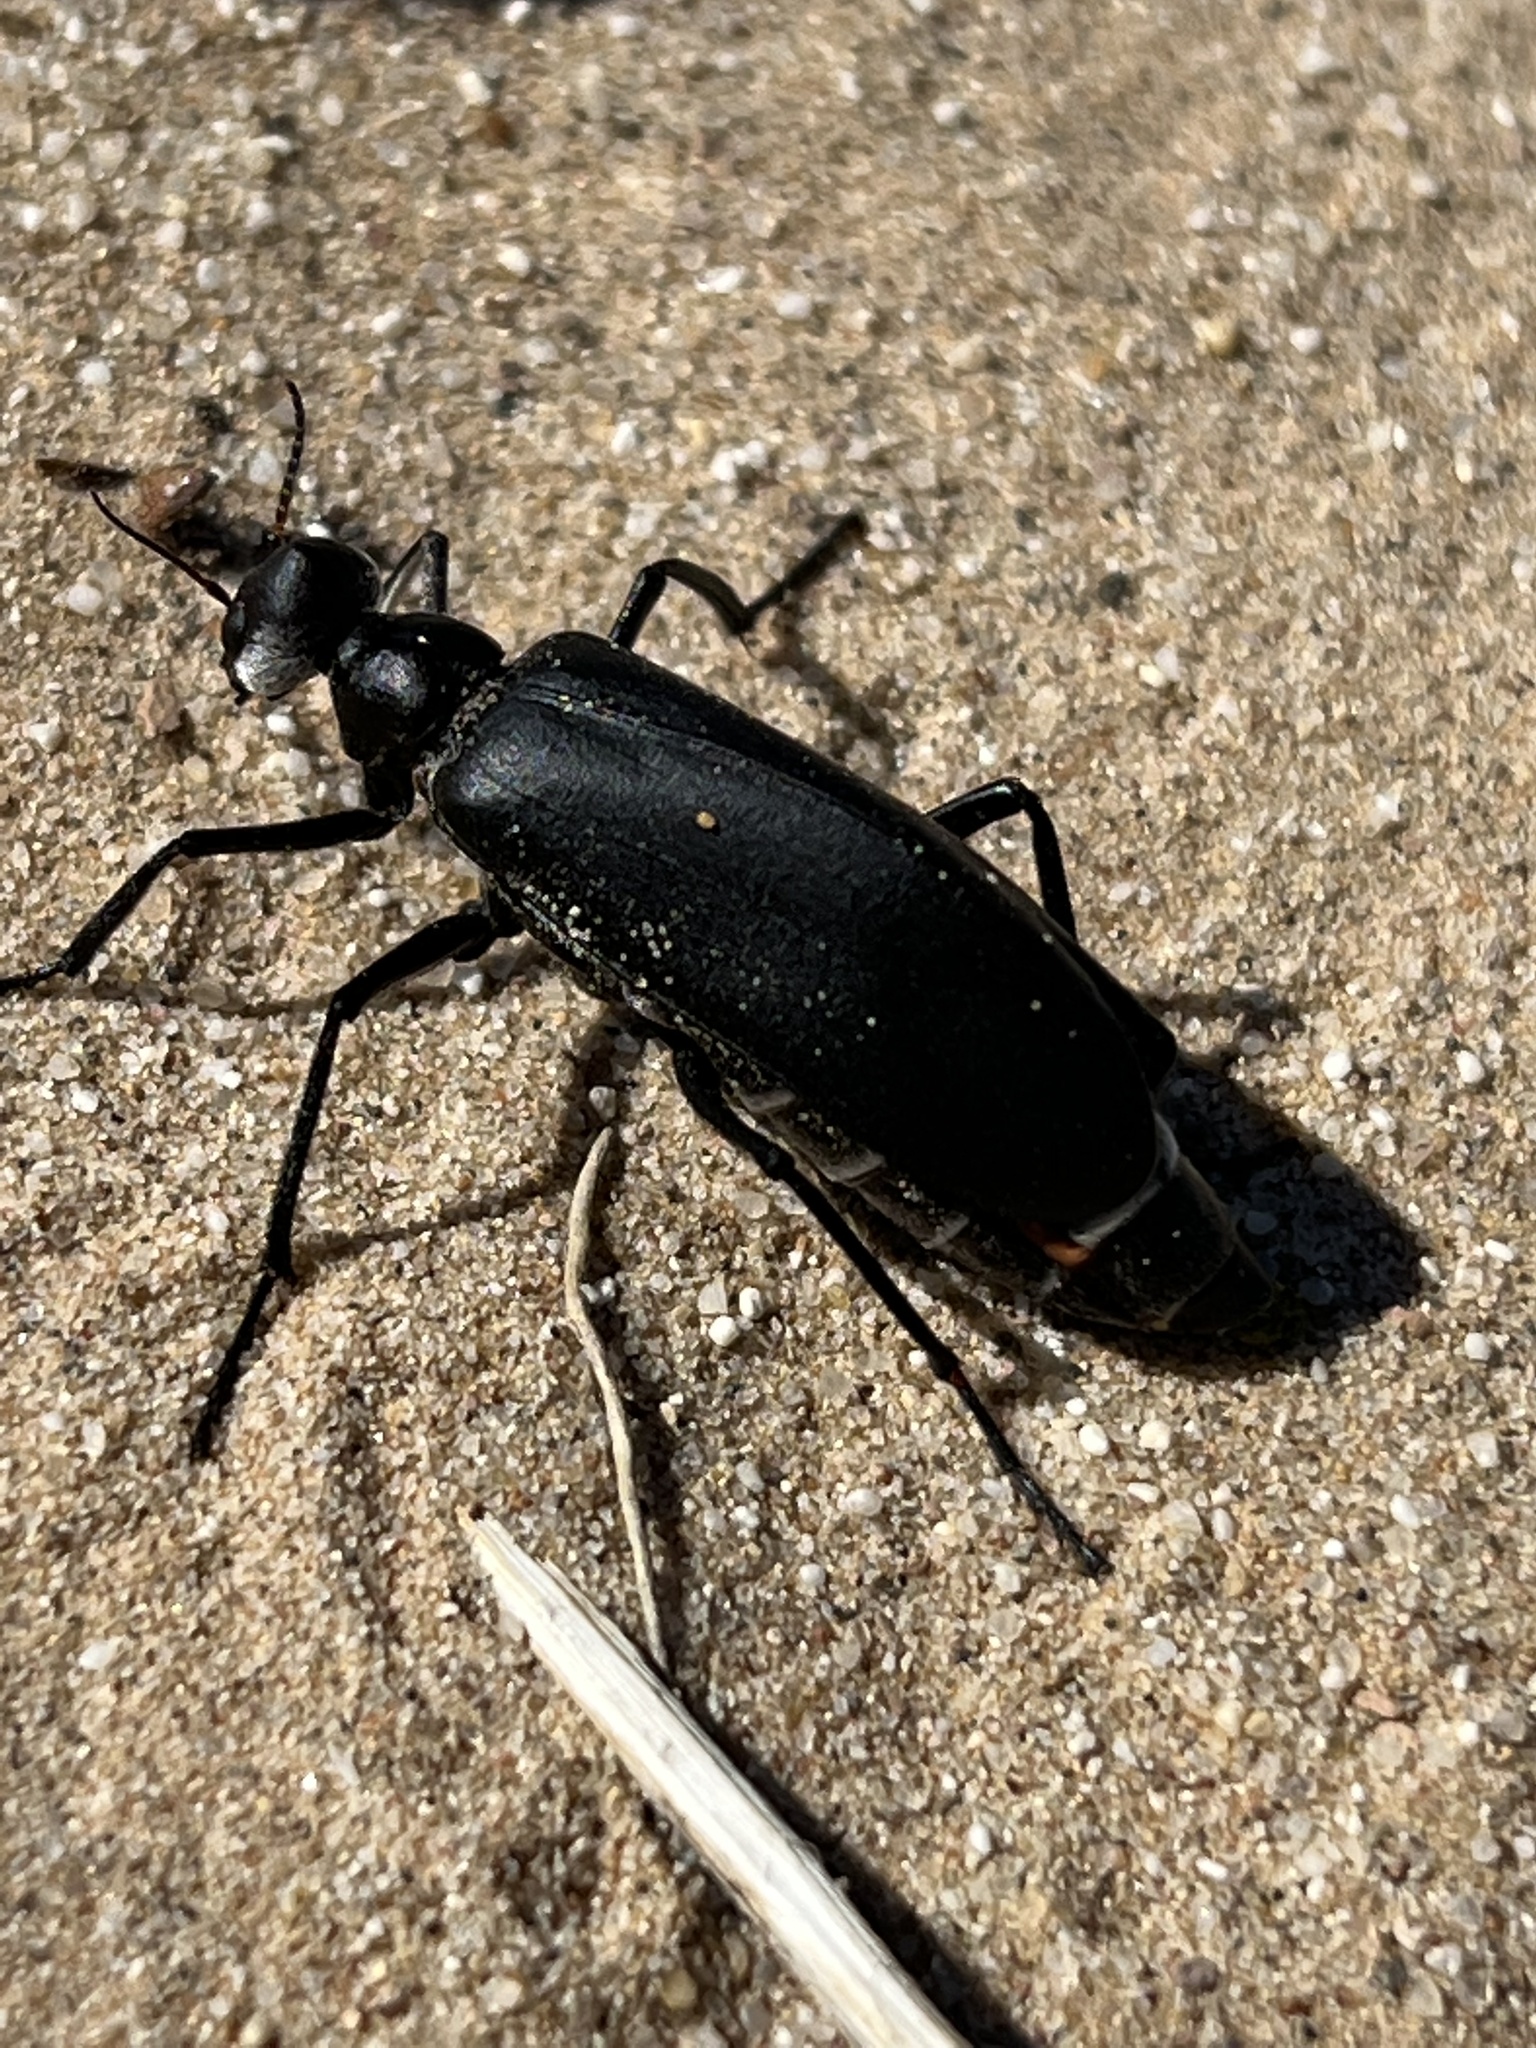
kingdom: Animalia
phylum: Arthropoda
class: Insecta
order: Coleoptera
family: Meloidae
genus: Phodaga
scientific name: Phodaga alticeps
